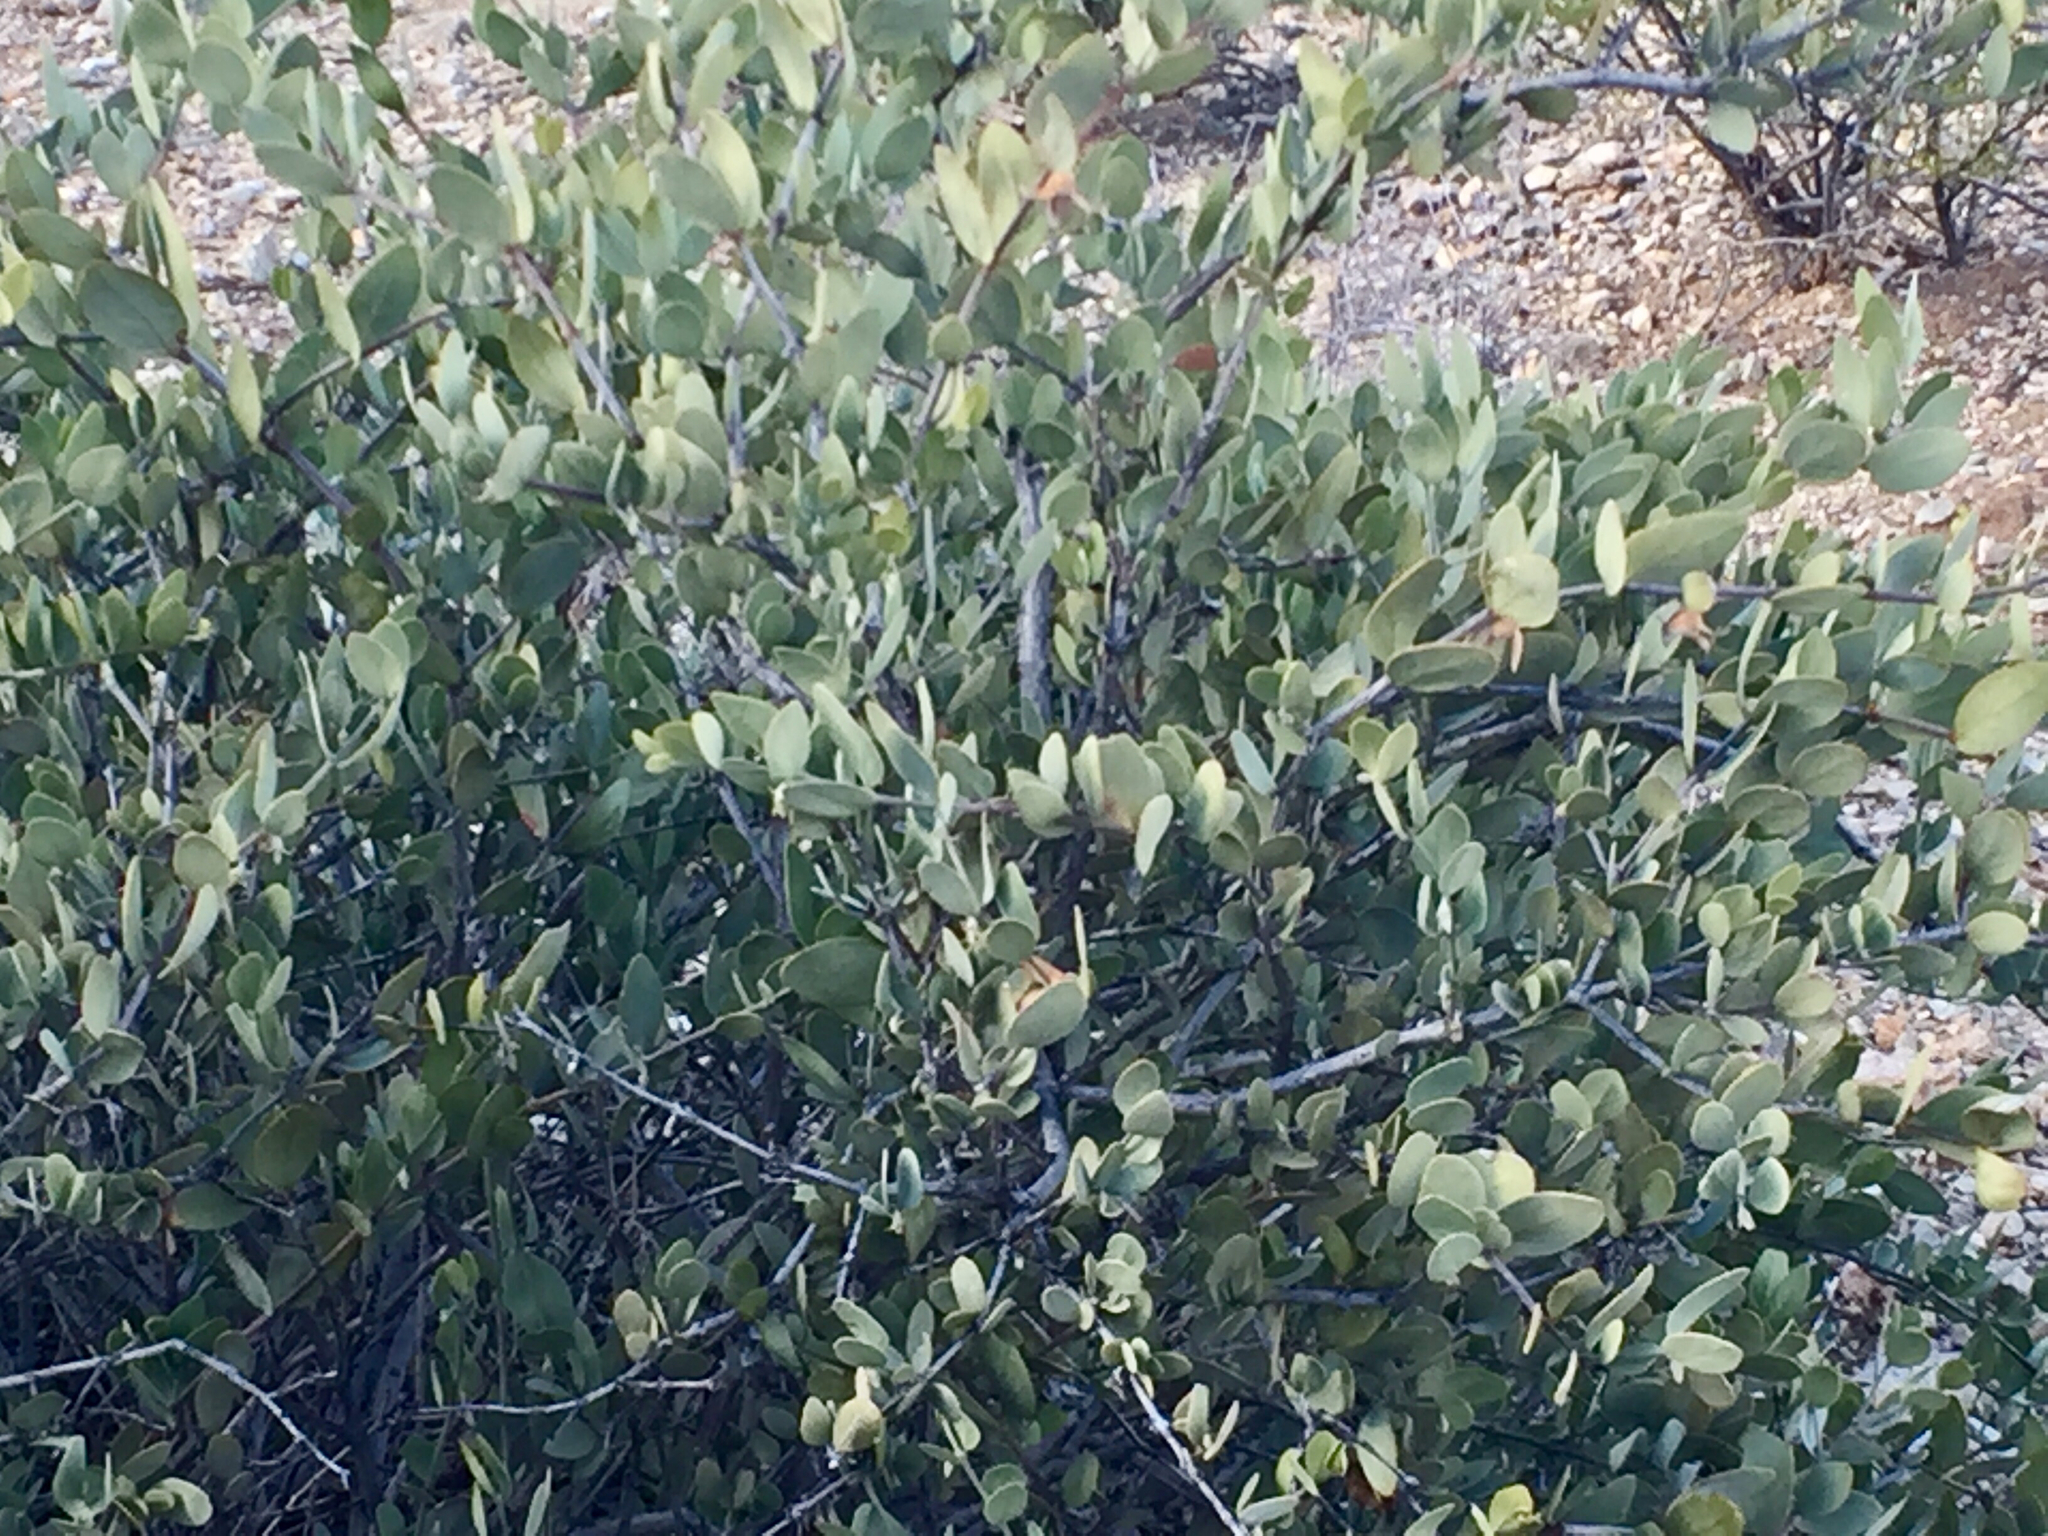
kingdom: Plantae
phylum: Tracheophyta
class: Magnoliopsida
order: Caryophyllales
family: Simmondsiaceae
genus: Simmondsia
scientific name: Simmondsia chinensis
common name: Jojoba
